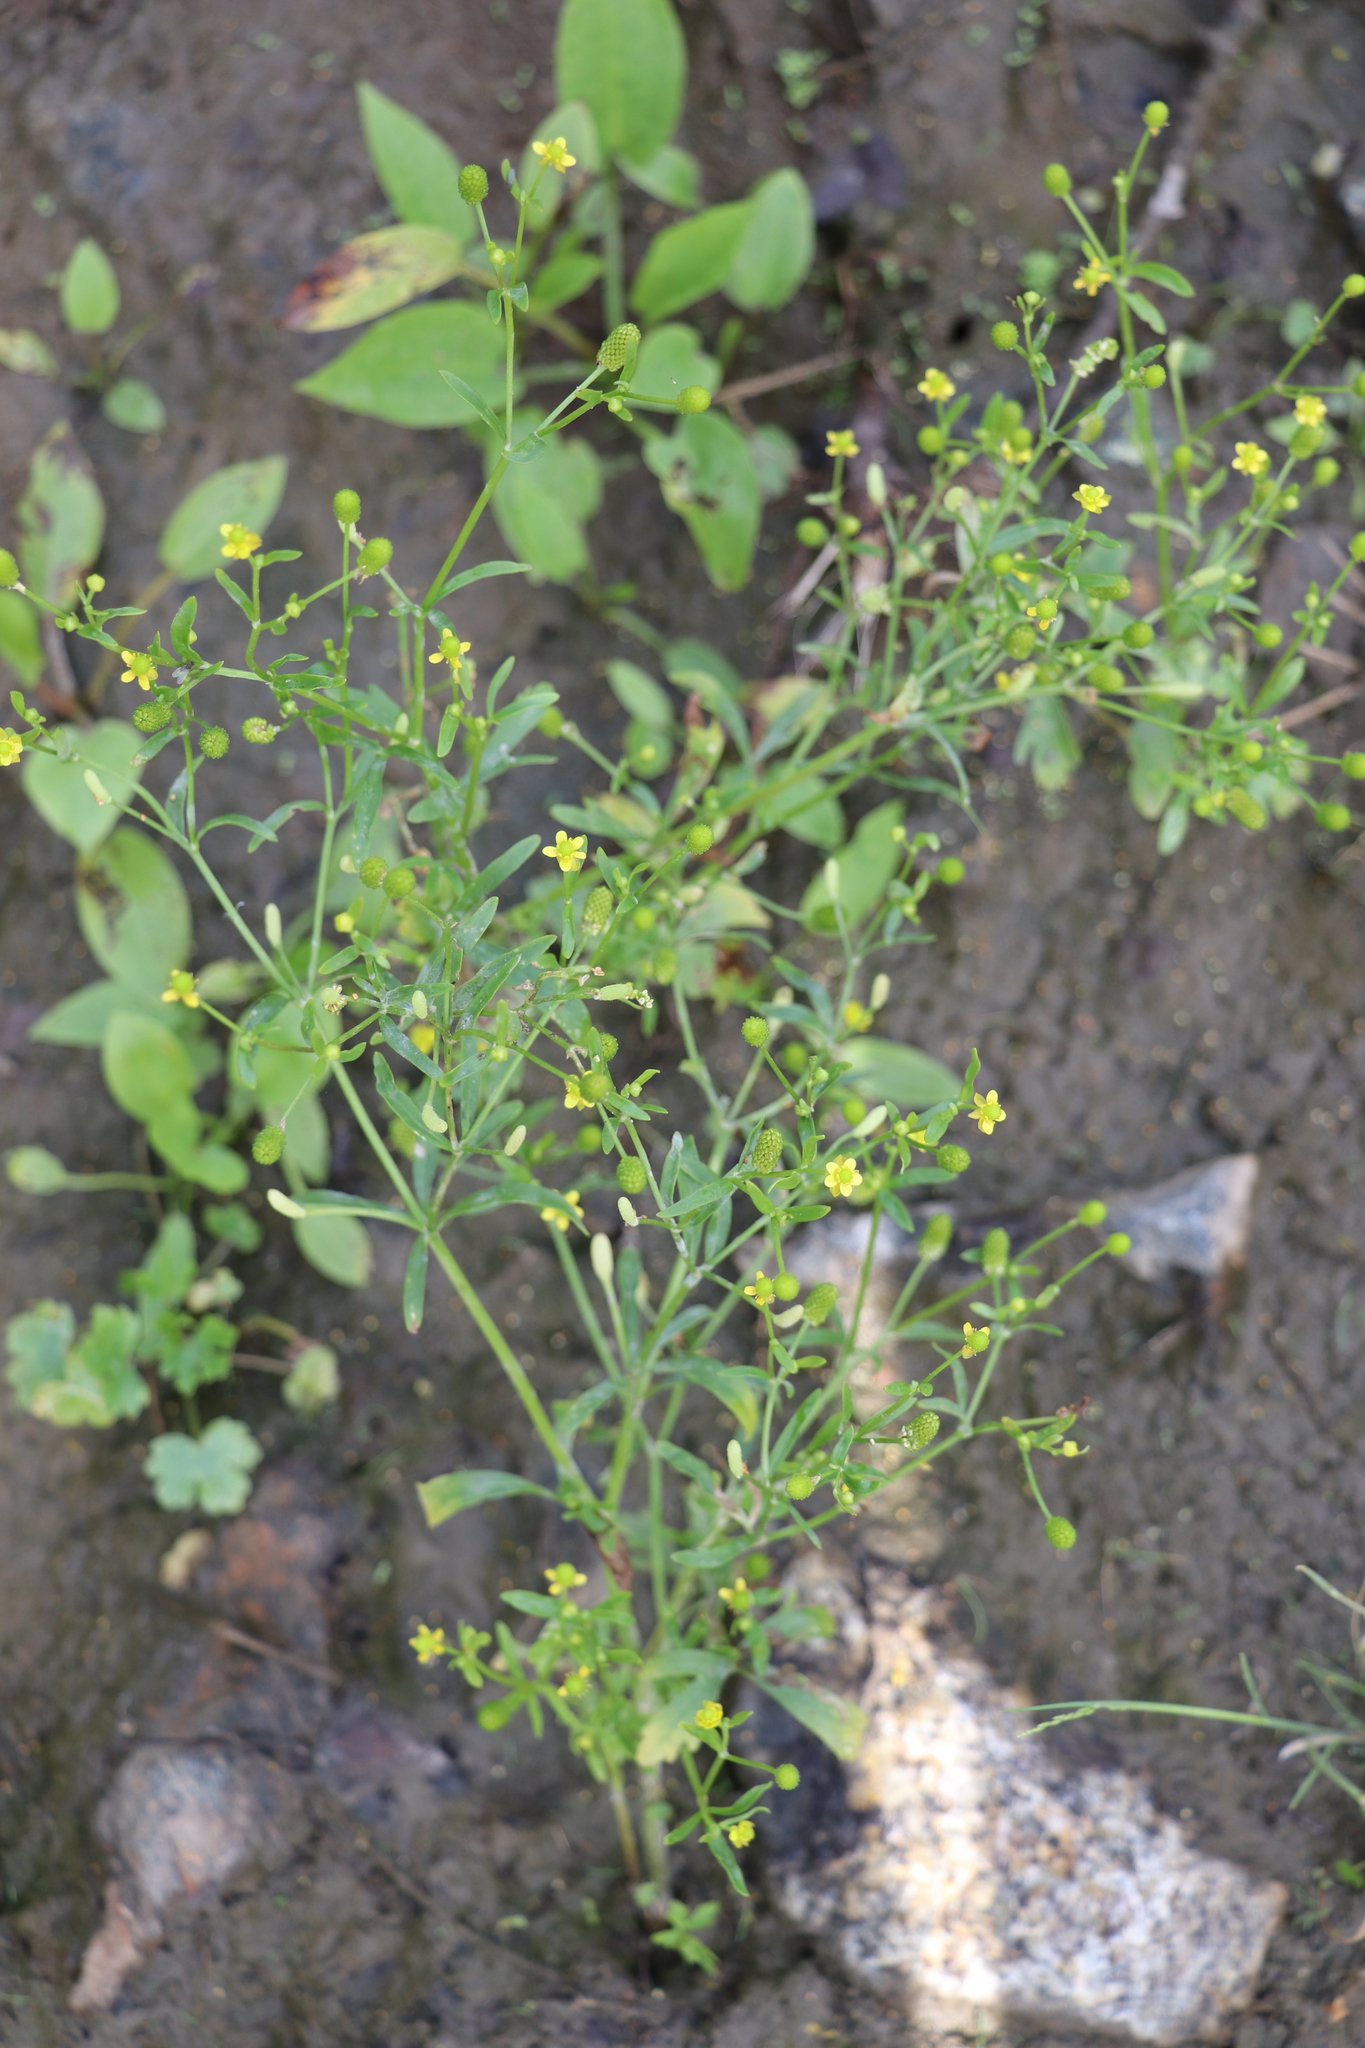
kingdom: Plantae
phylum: Tracheophyta
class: Magnoliopsida
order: Ranunculales
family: Ranunculaceae
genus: Ranunculus
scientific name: Ranunculus sceleratus
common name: Celery-leaved buttercup
